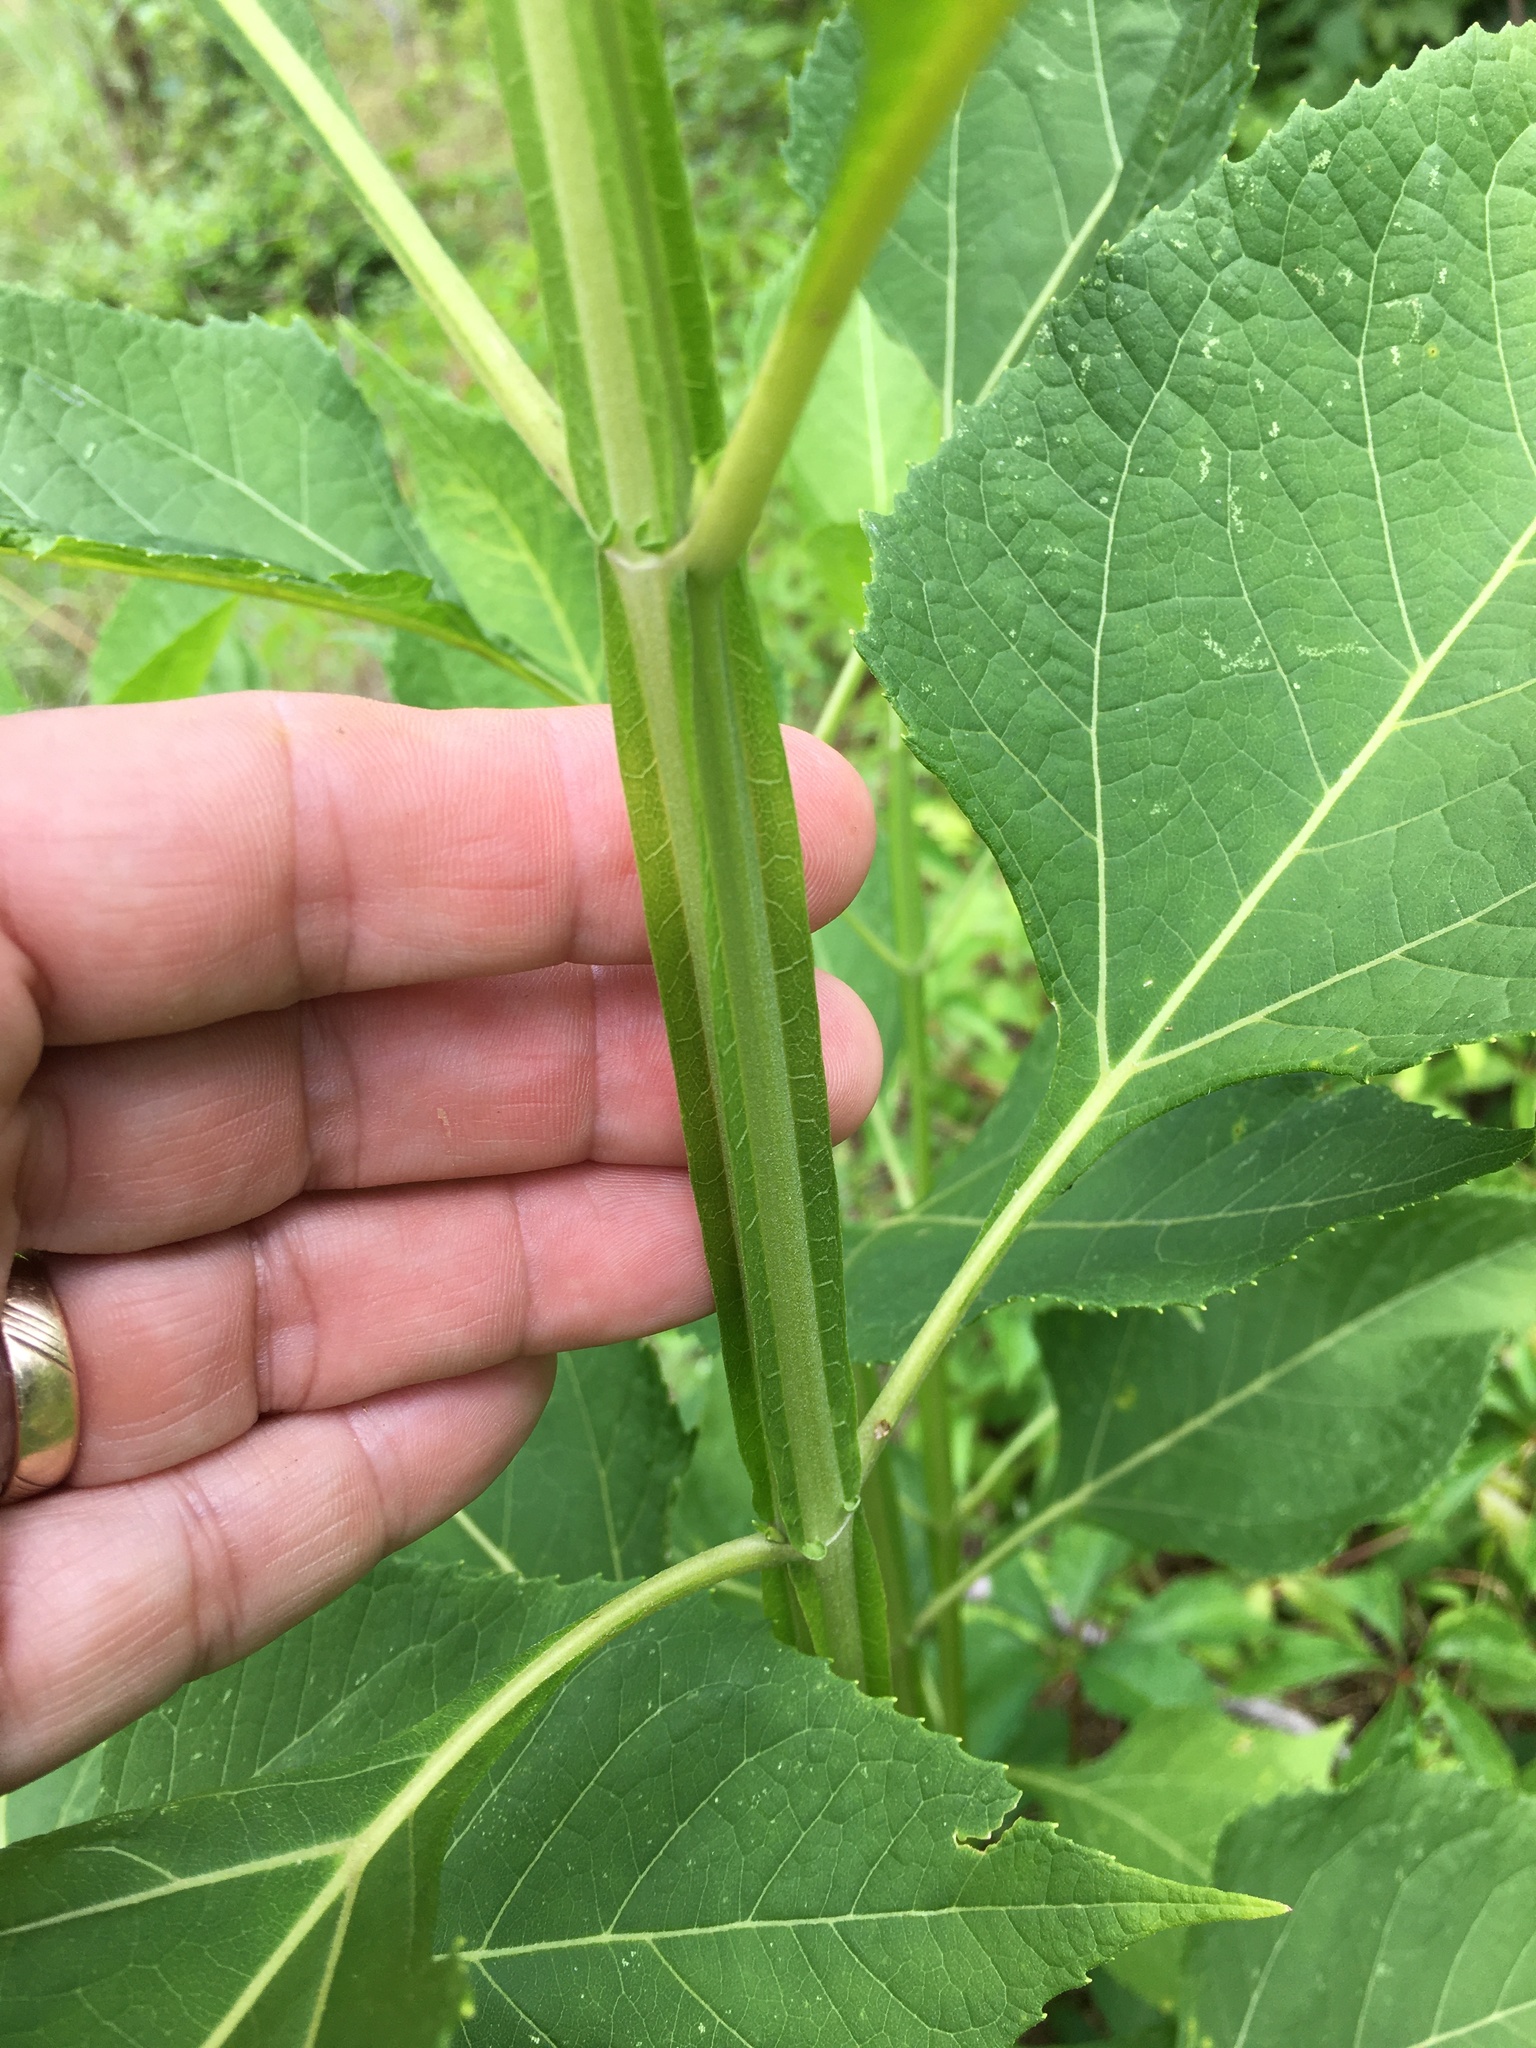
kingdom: Plantae
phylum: Tracheophyta
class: Magnoliopsida
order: Asterales
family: Asteraceae
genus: Verbesina
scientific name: Verbesina occidentalis
